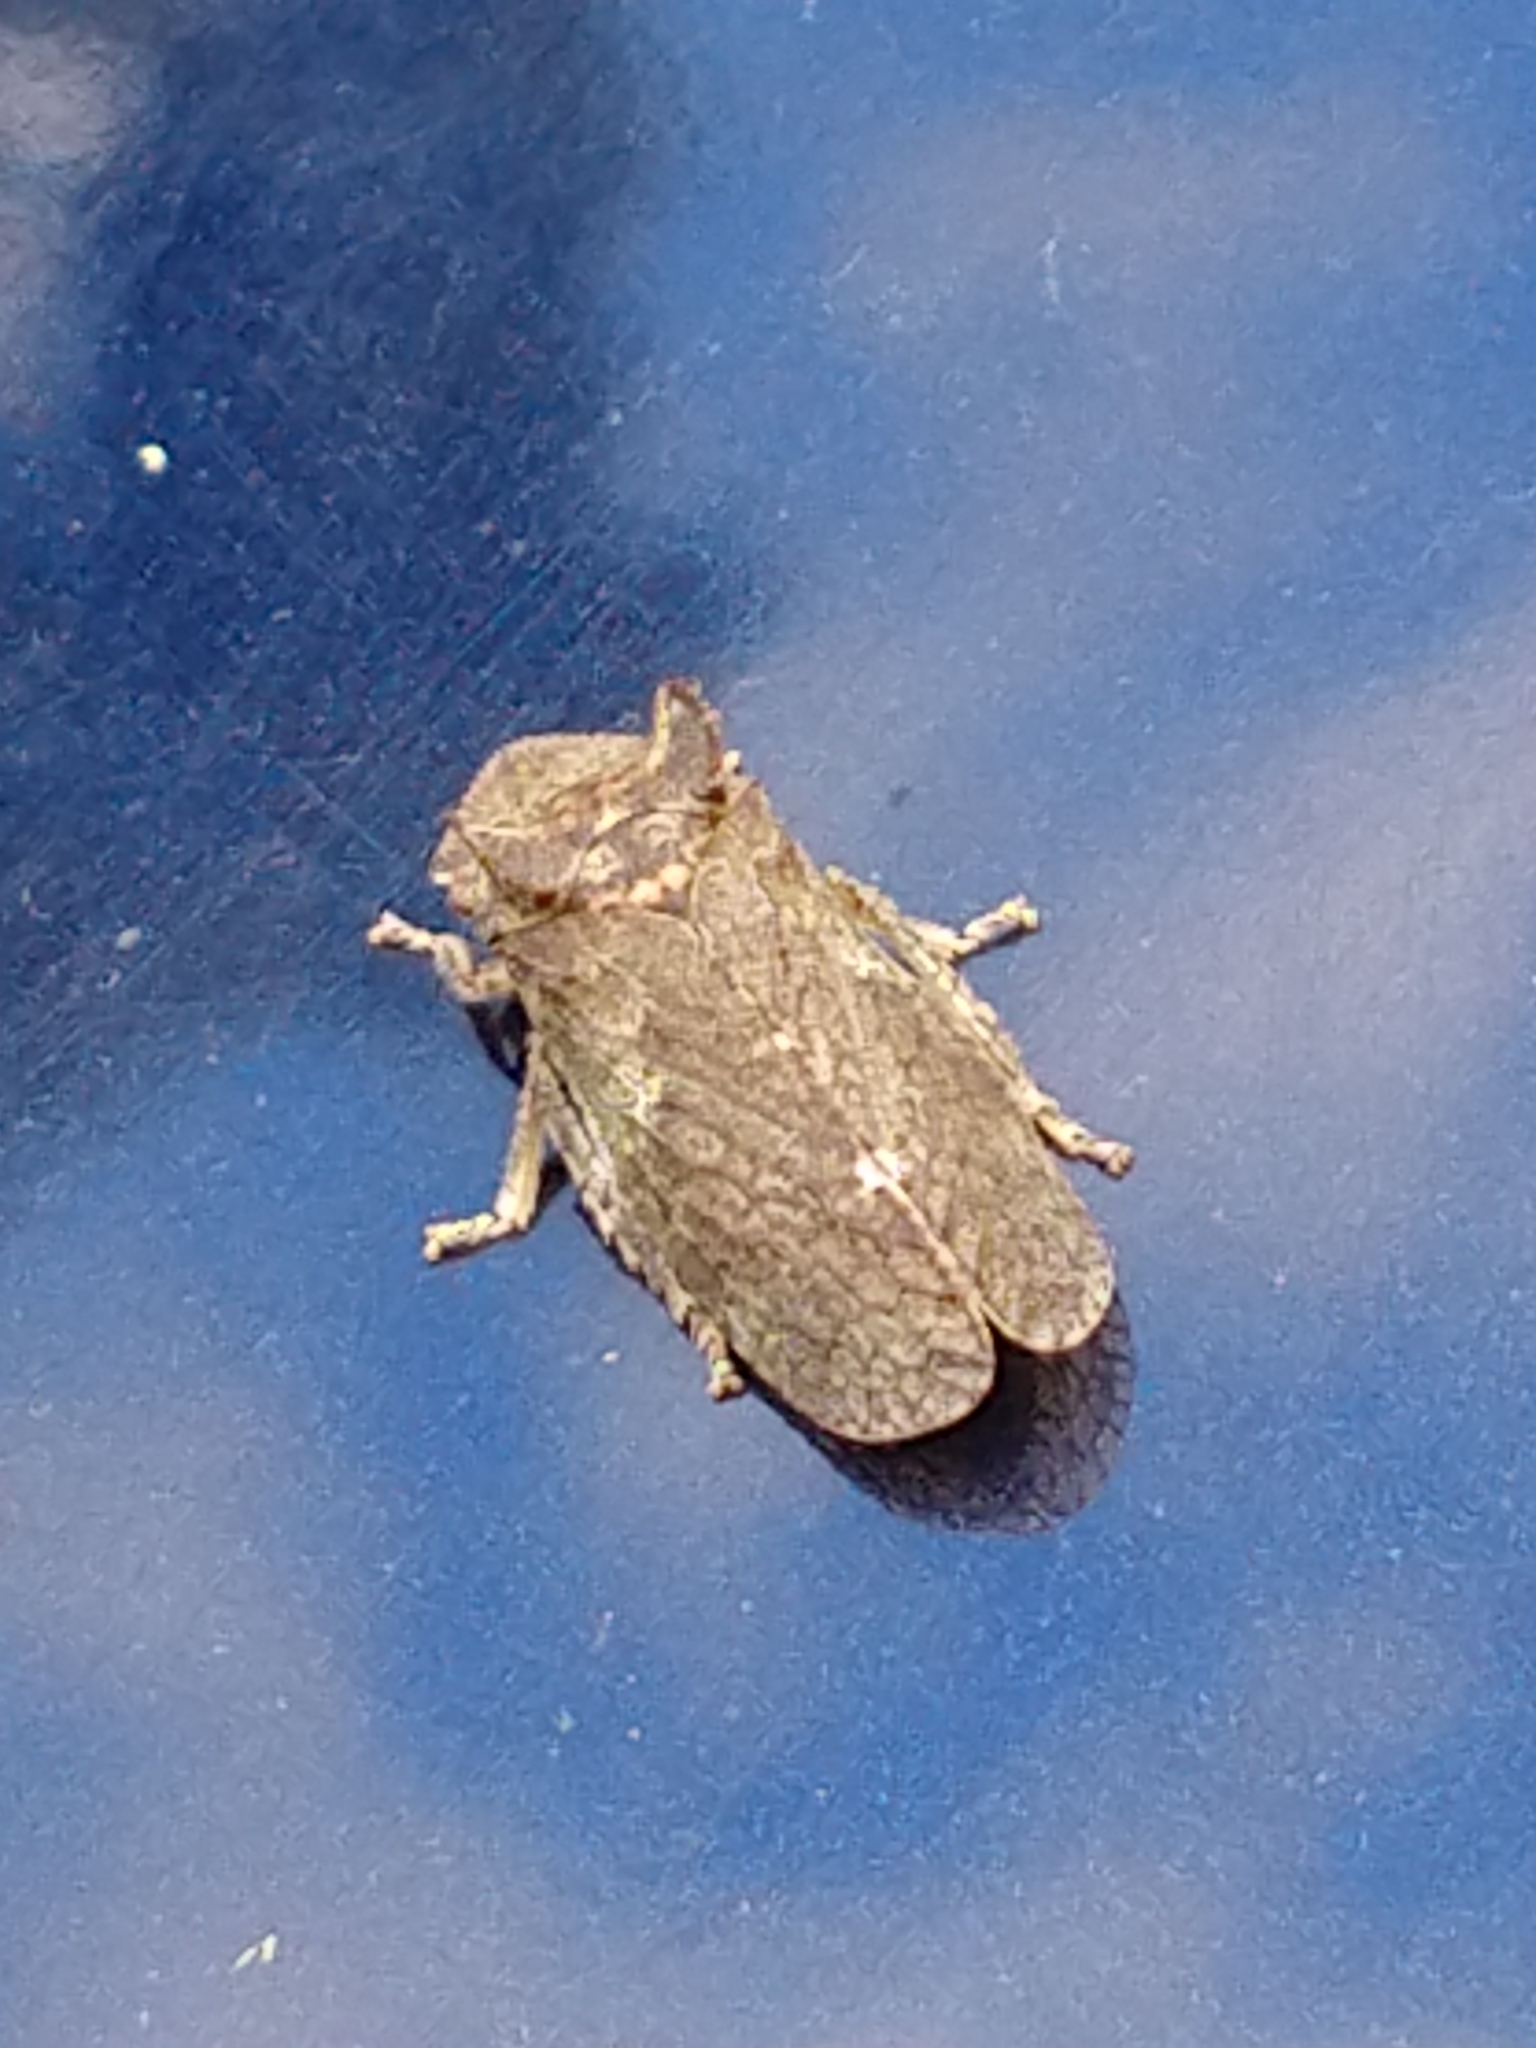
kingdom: Animalia
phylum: Arthropoda
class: Insecta
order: Hemiptera
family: Cicadellidae
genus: Ledra
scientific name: Ledra aurita
